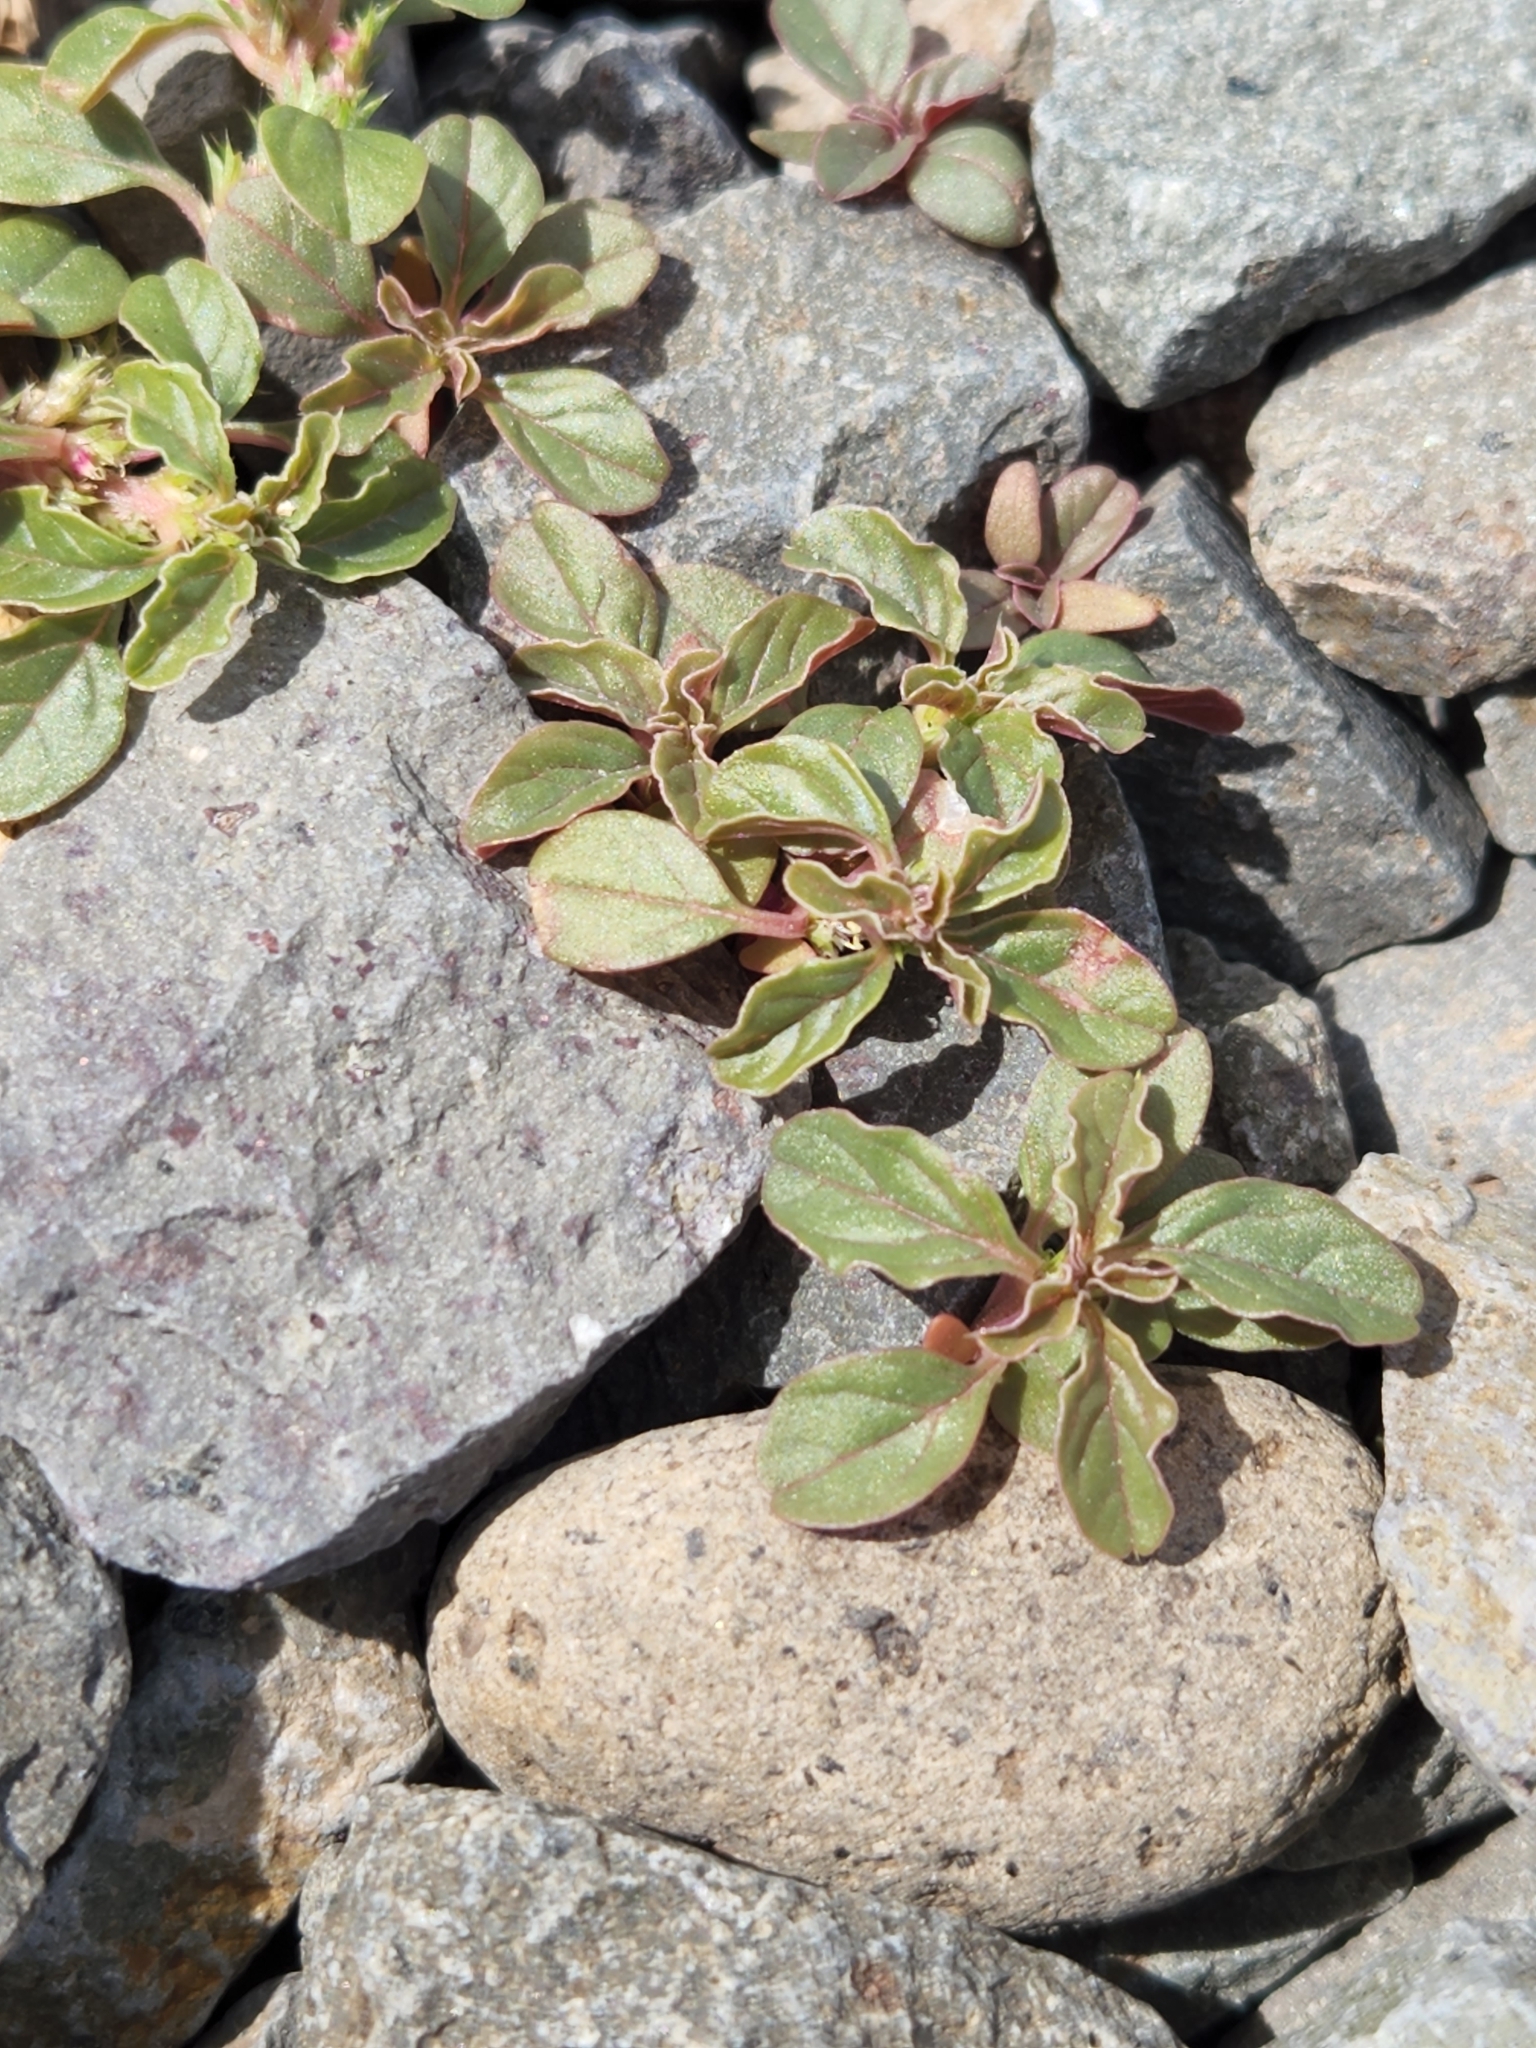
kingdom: Plantae
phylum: Tracheophyta
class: Magnoliopsida
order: Caryophyllales
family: Amaranthaceae
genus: Amaranthus
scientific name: Amaranthus retroflexus
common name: Redroot amaranth
